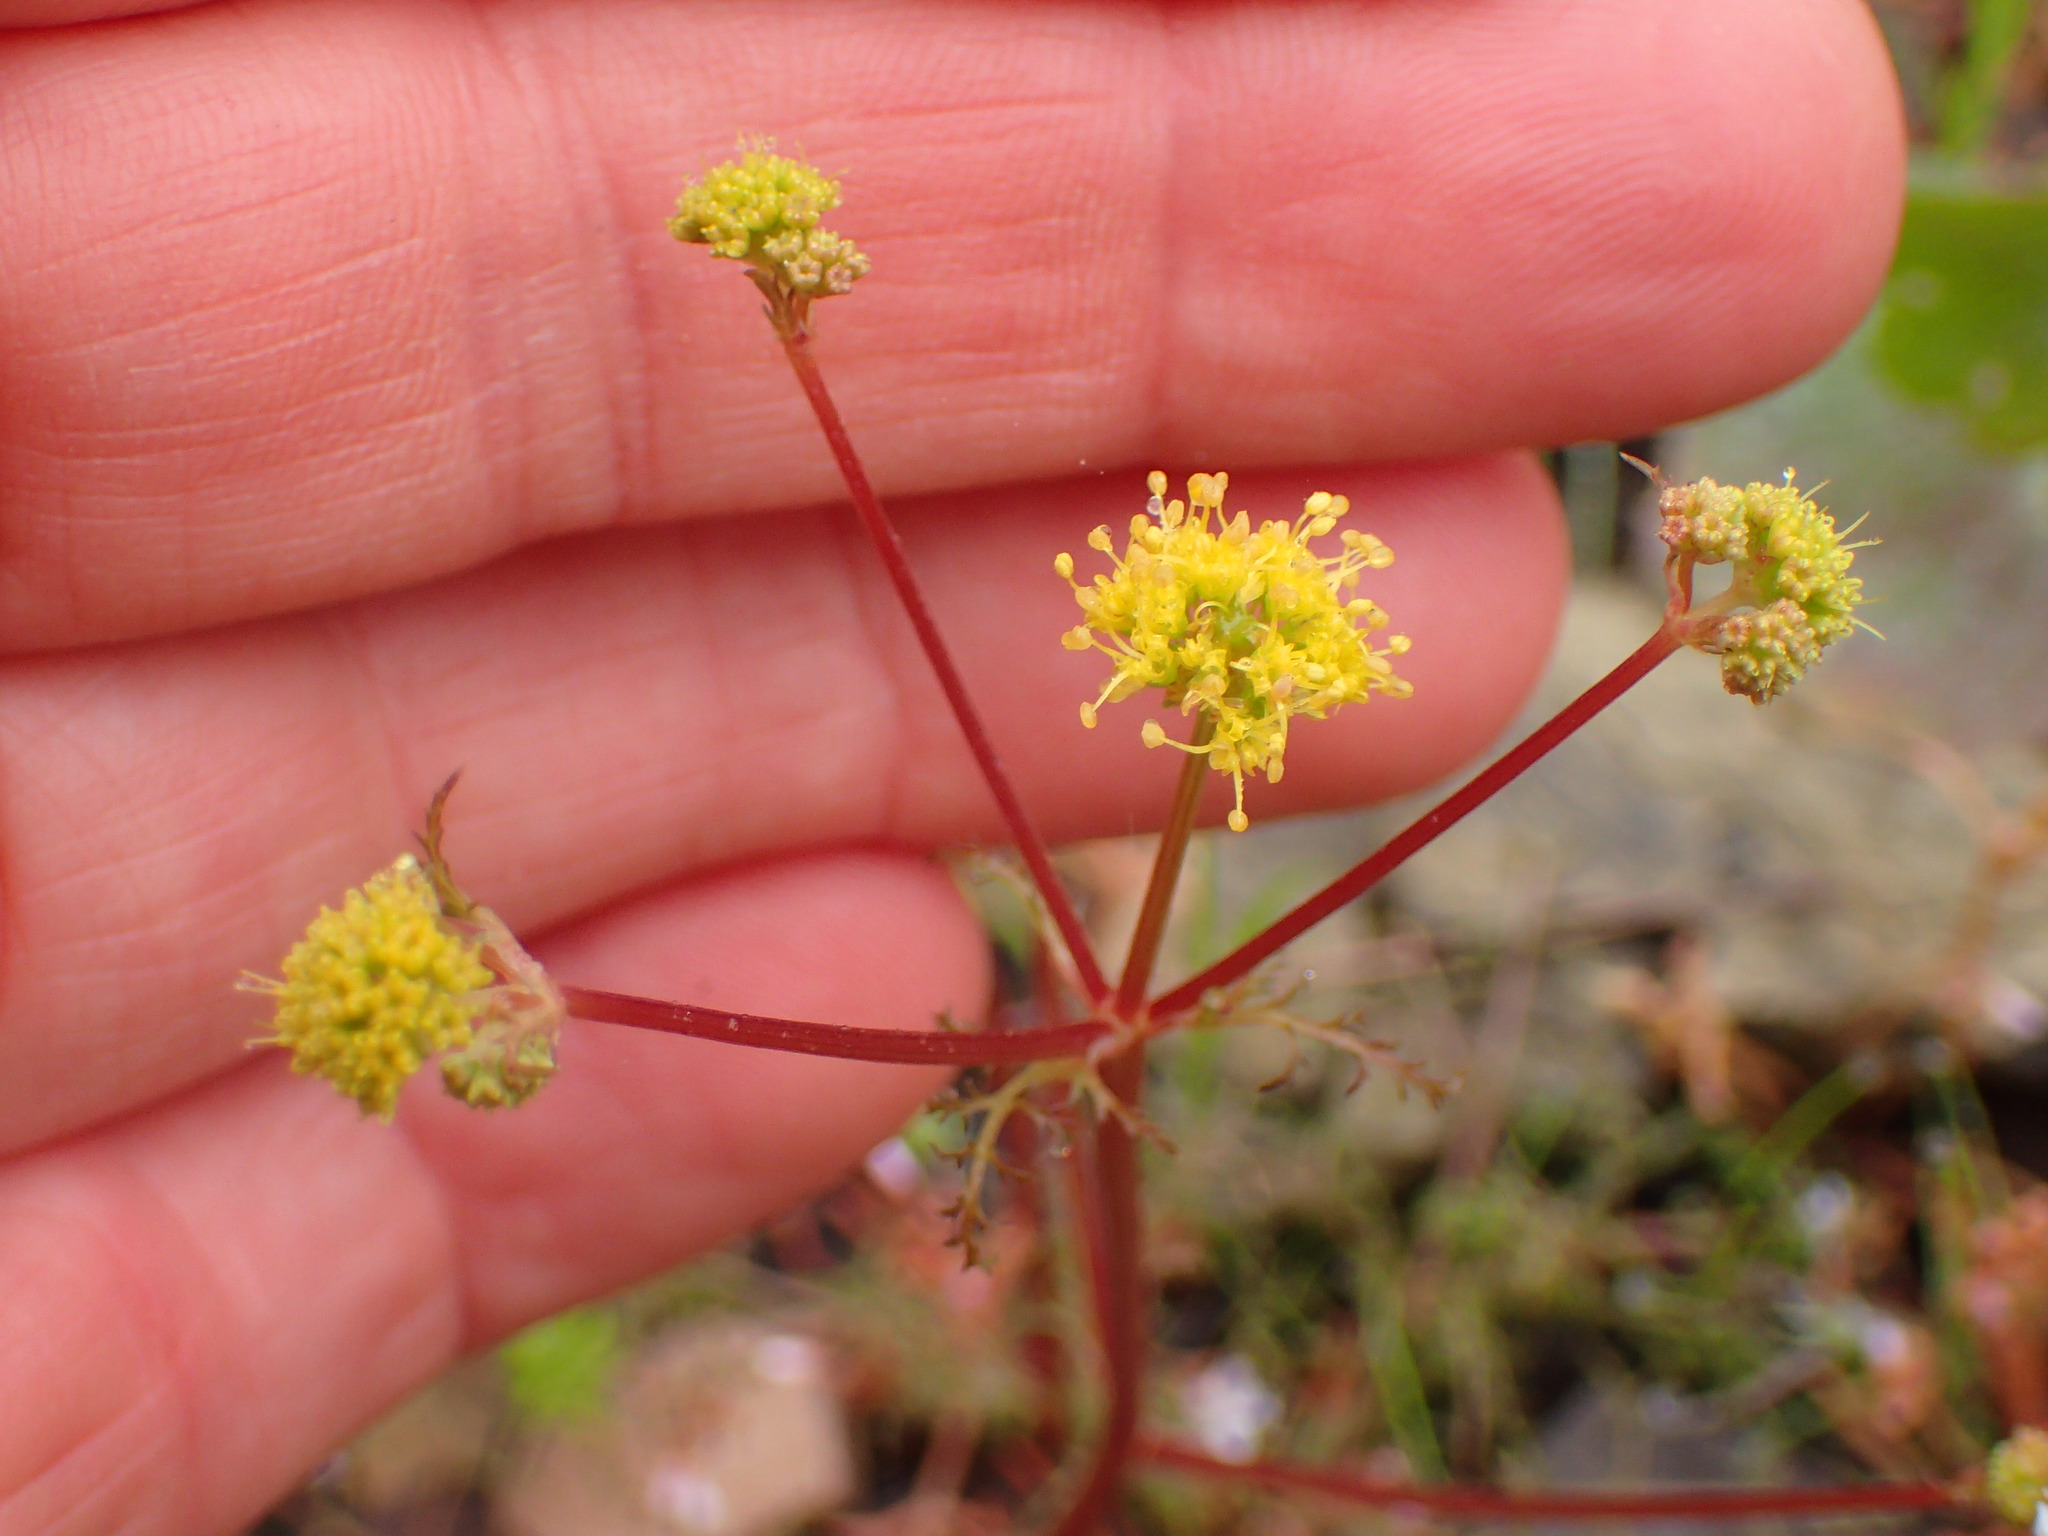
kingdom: Plantae
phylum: Tracheophyta
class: Magnoliopsida
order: Apiales
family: Apiaceae
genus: Sanicula
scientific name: Sanicula tuberosa
